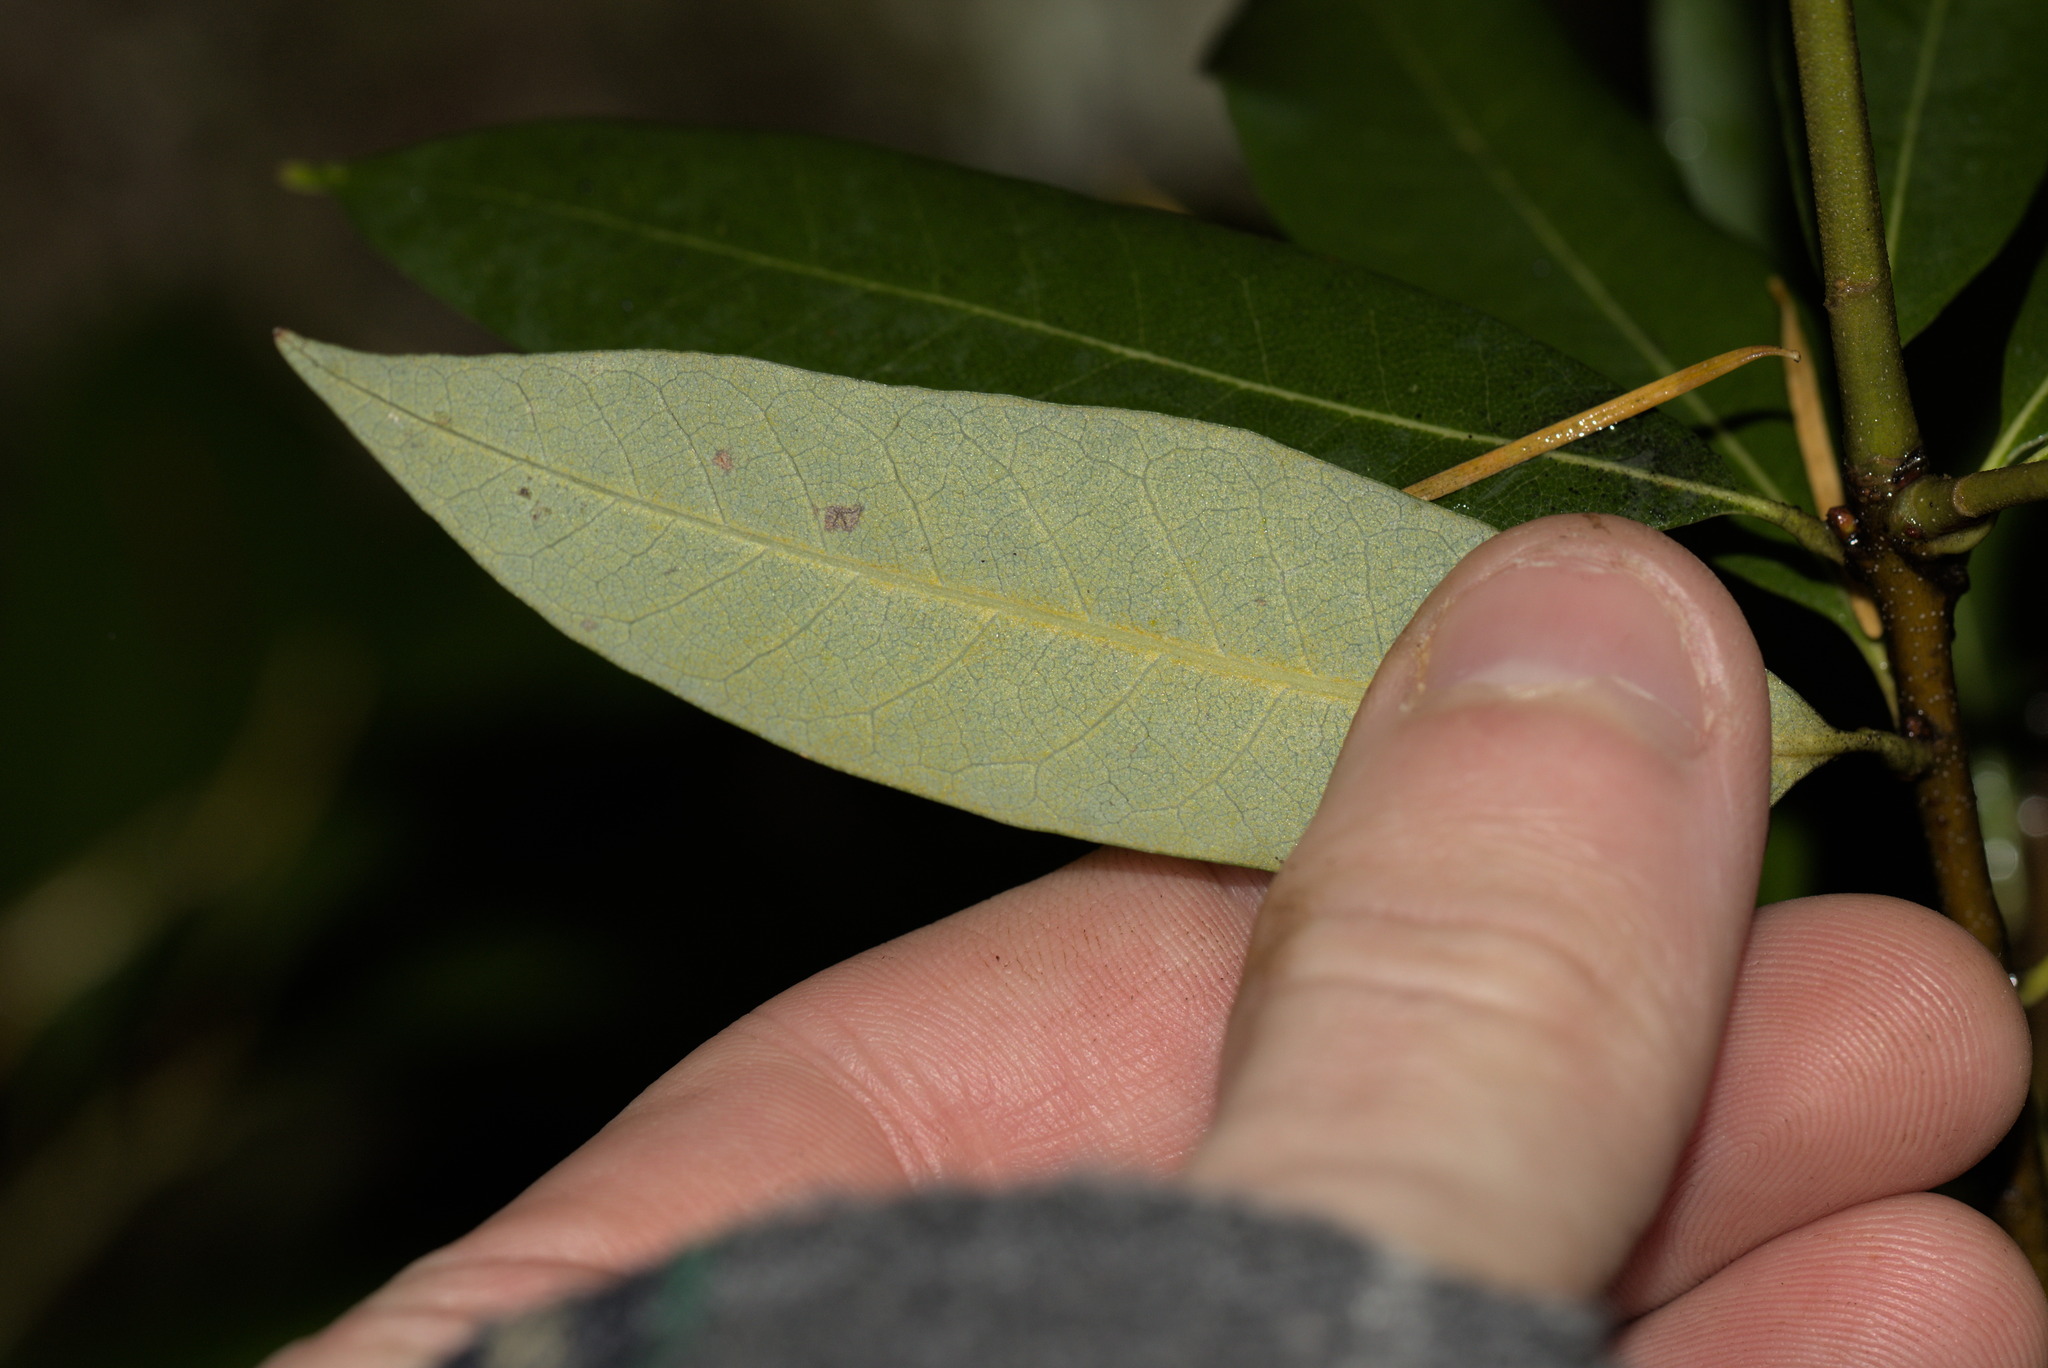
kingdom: Plantae
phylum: Tracheophyta
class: Magnoliopsida
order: Fagales
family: Fagaceae
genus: Chrysolepis
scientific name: Chrysolepis chrysophylla
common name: Giant chinquapin
